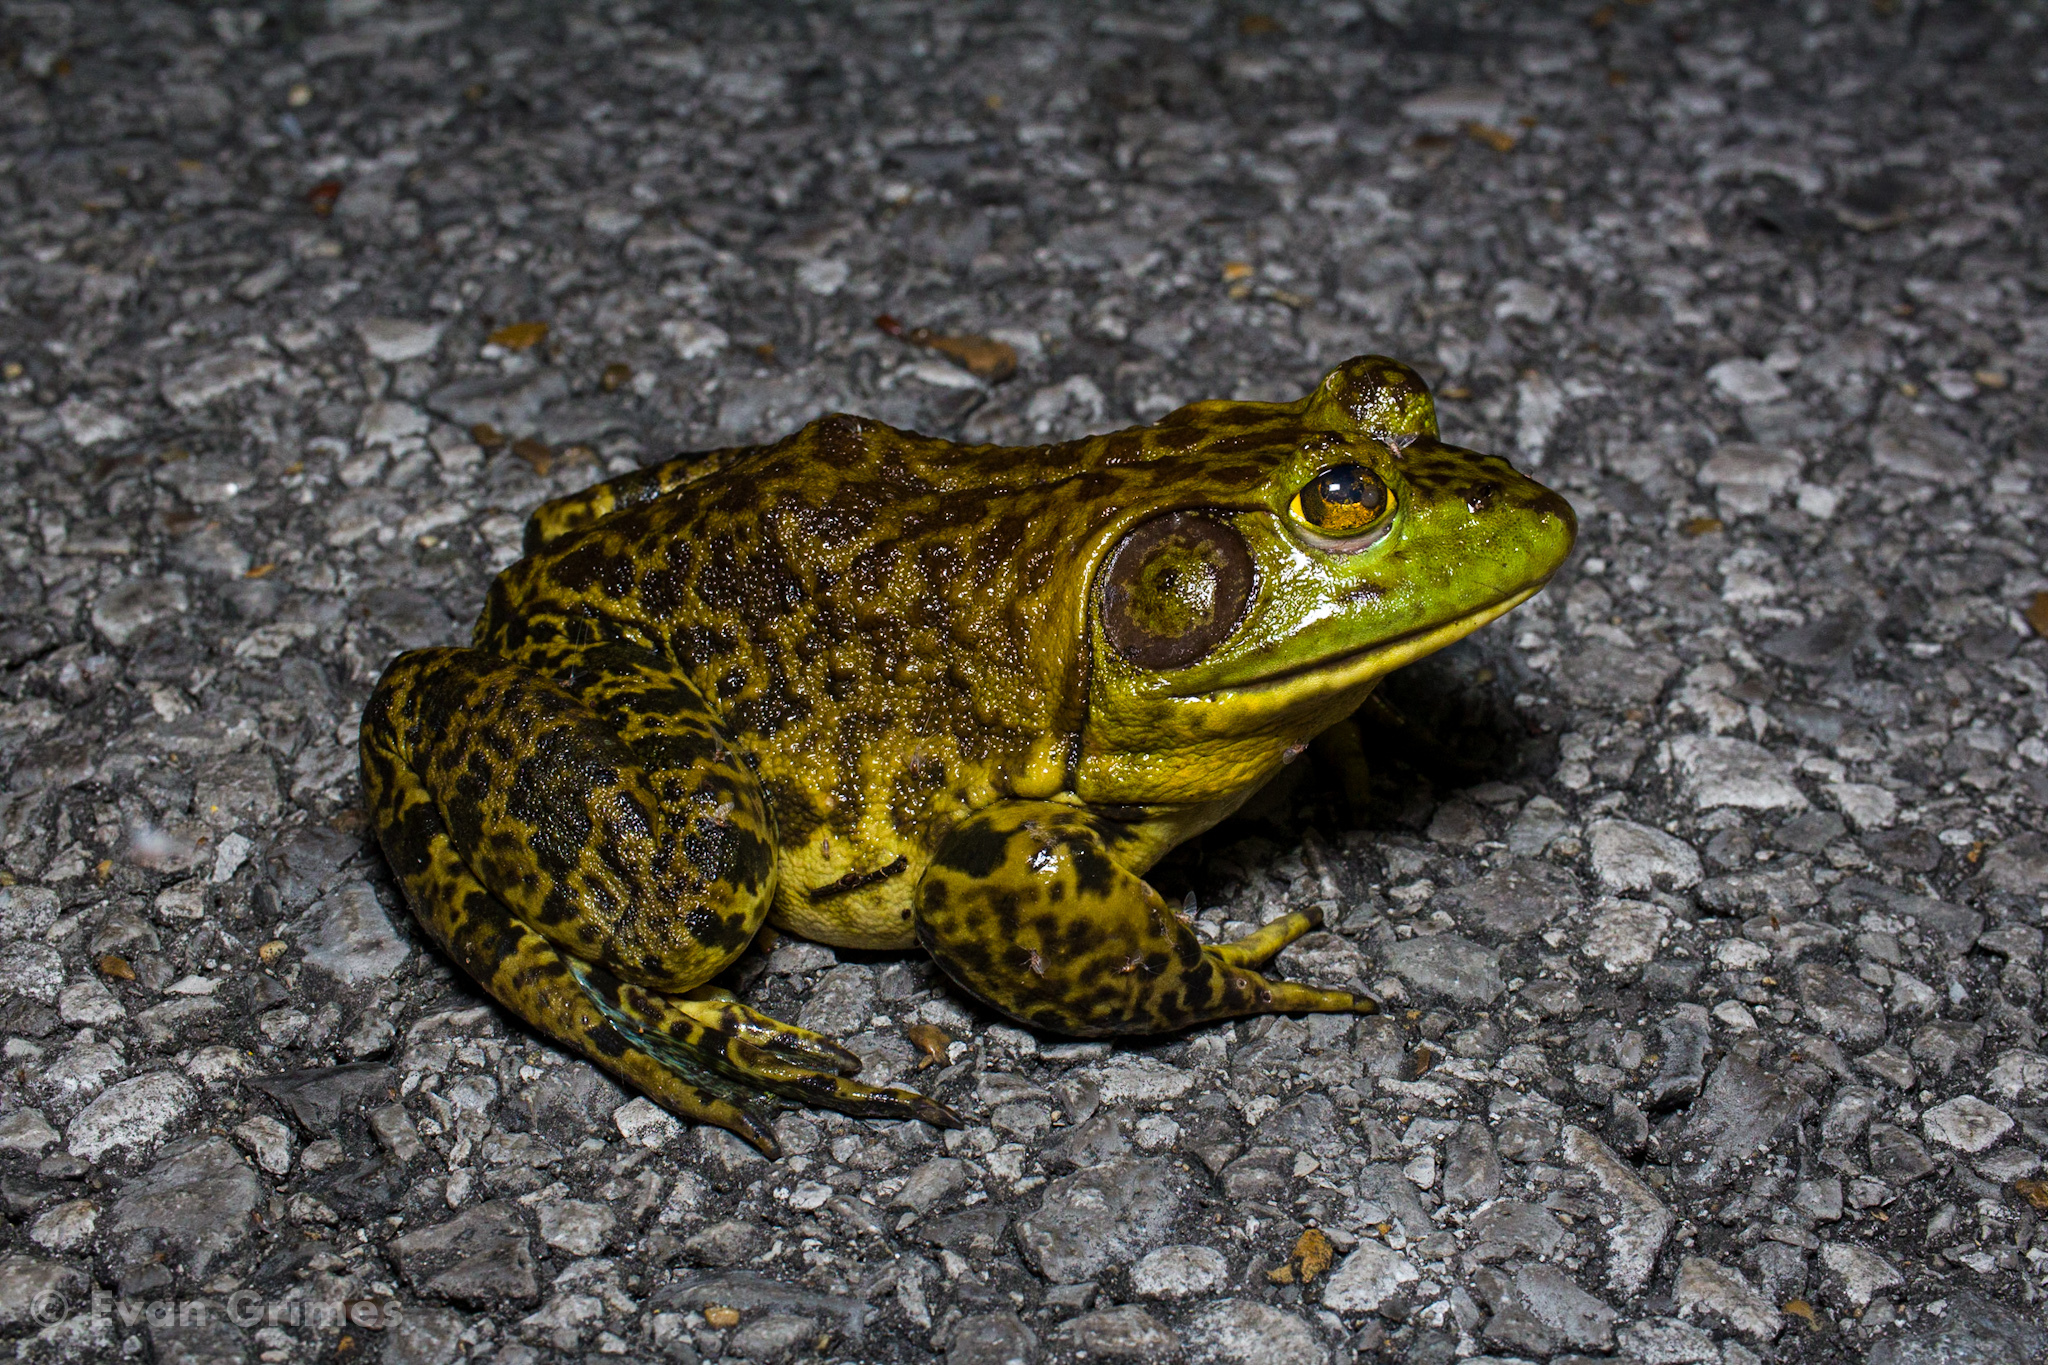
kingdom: Animalia
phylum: Chordata
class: Amphibia
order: Anura
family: Ranidae
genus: Lithobates
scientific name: Lithobates catesbeianus
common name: American bullfrog
